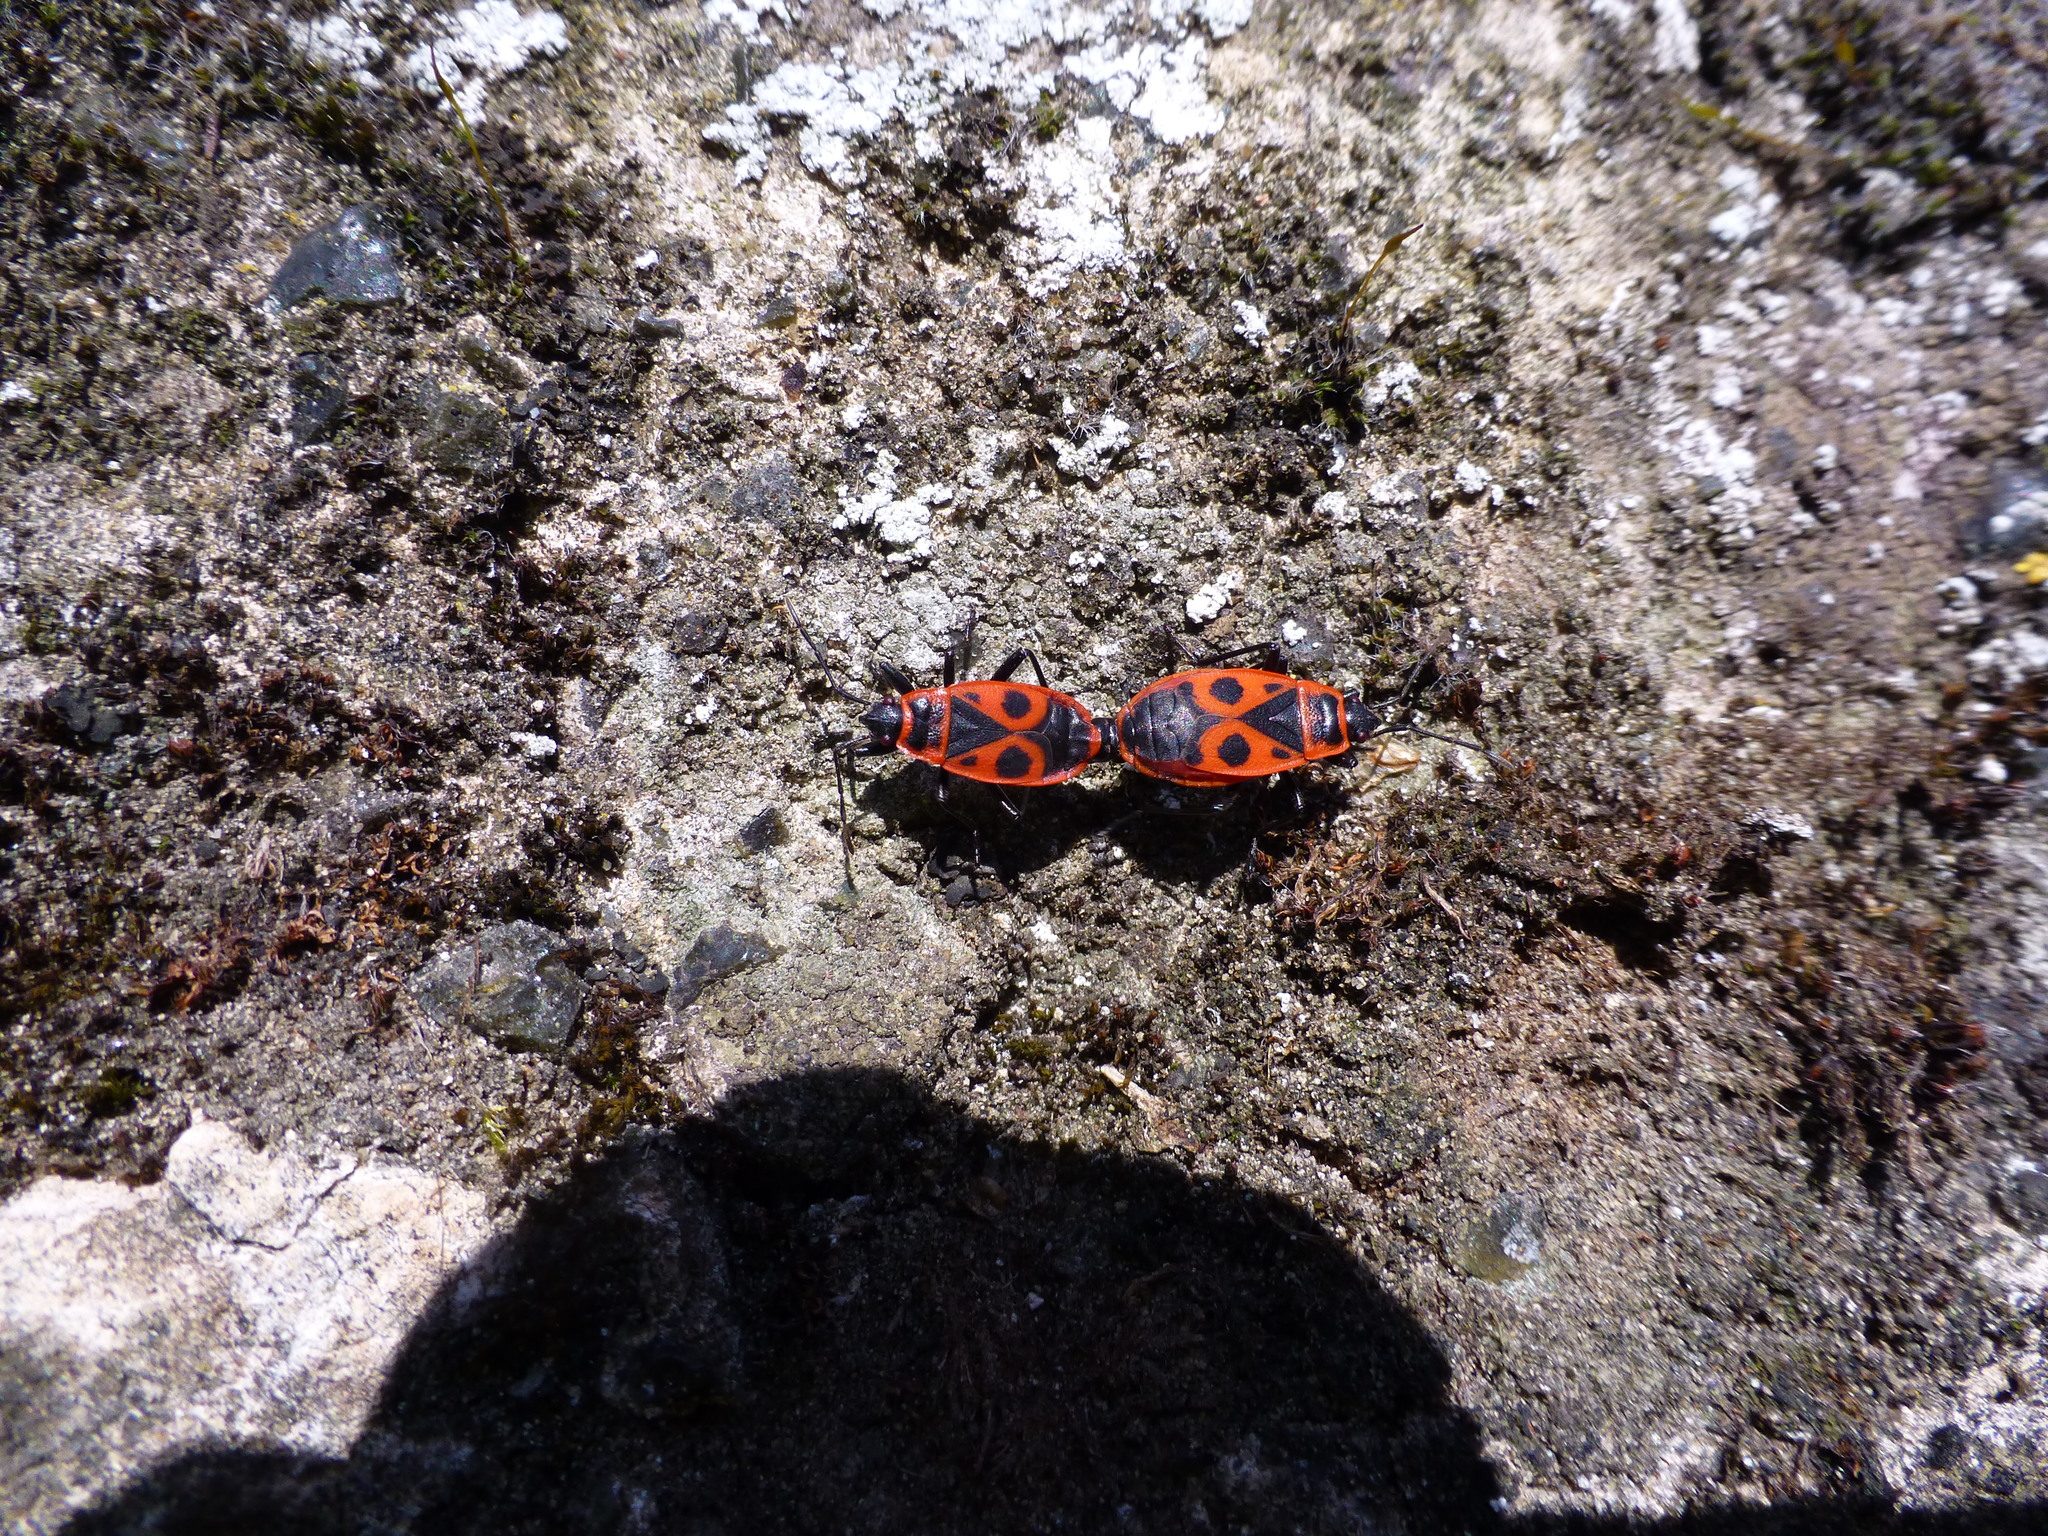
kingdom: Animalia
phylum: Arthropoda
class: Insecta
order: Hemiptera
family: Pyrrhocoridae
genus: Pyrrhocoris
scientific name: Pyrrhocoris apterus
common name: Firebug
